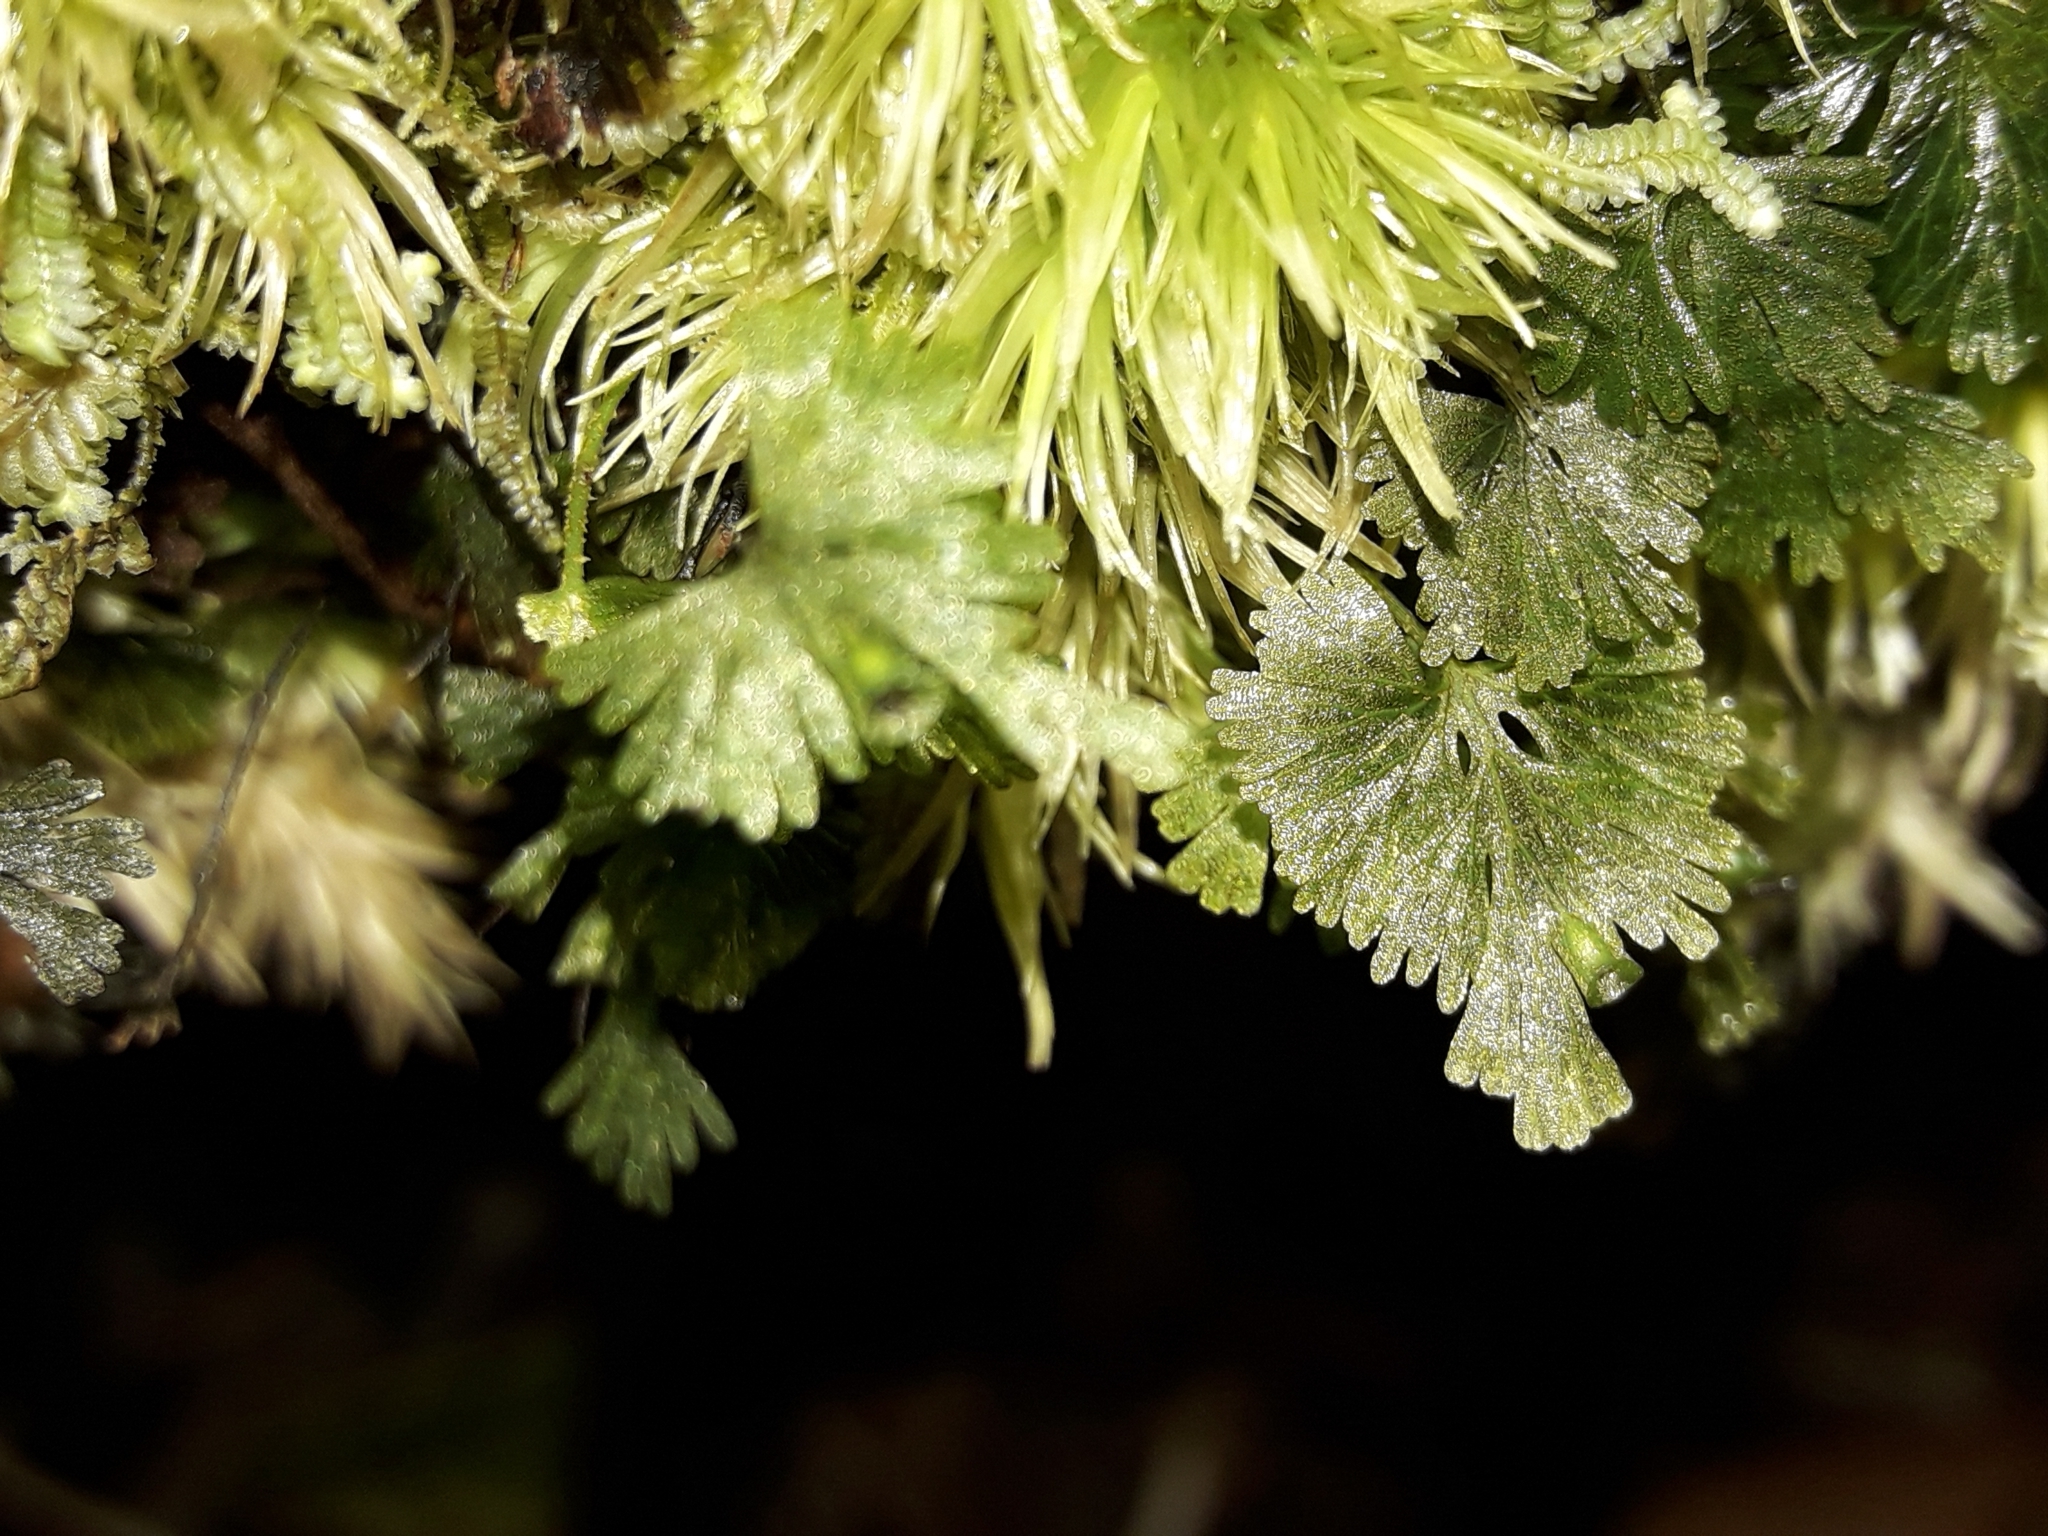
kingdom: Plantae
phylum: Tracheophyta
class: Polypodiopsida
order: Hymenophyllales
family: Hymenophyllaceae
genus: Crepidomanes
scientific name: Crepidomanes saxifragoides
